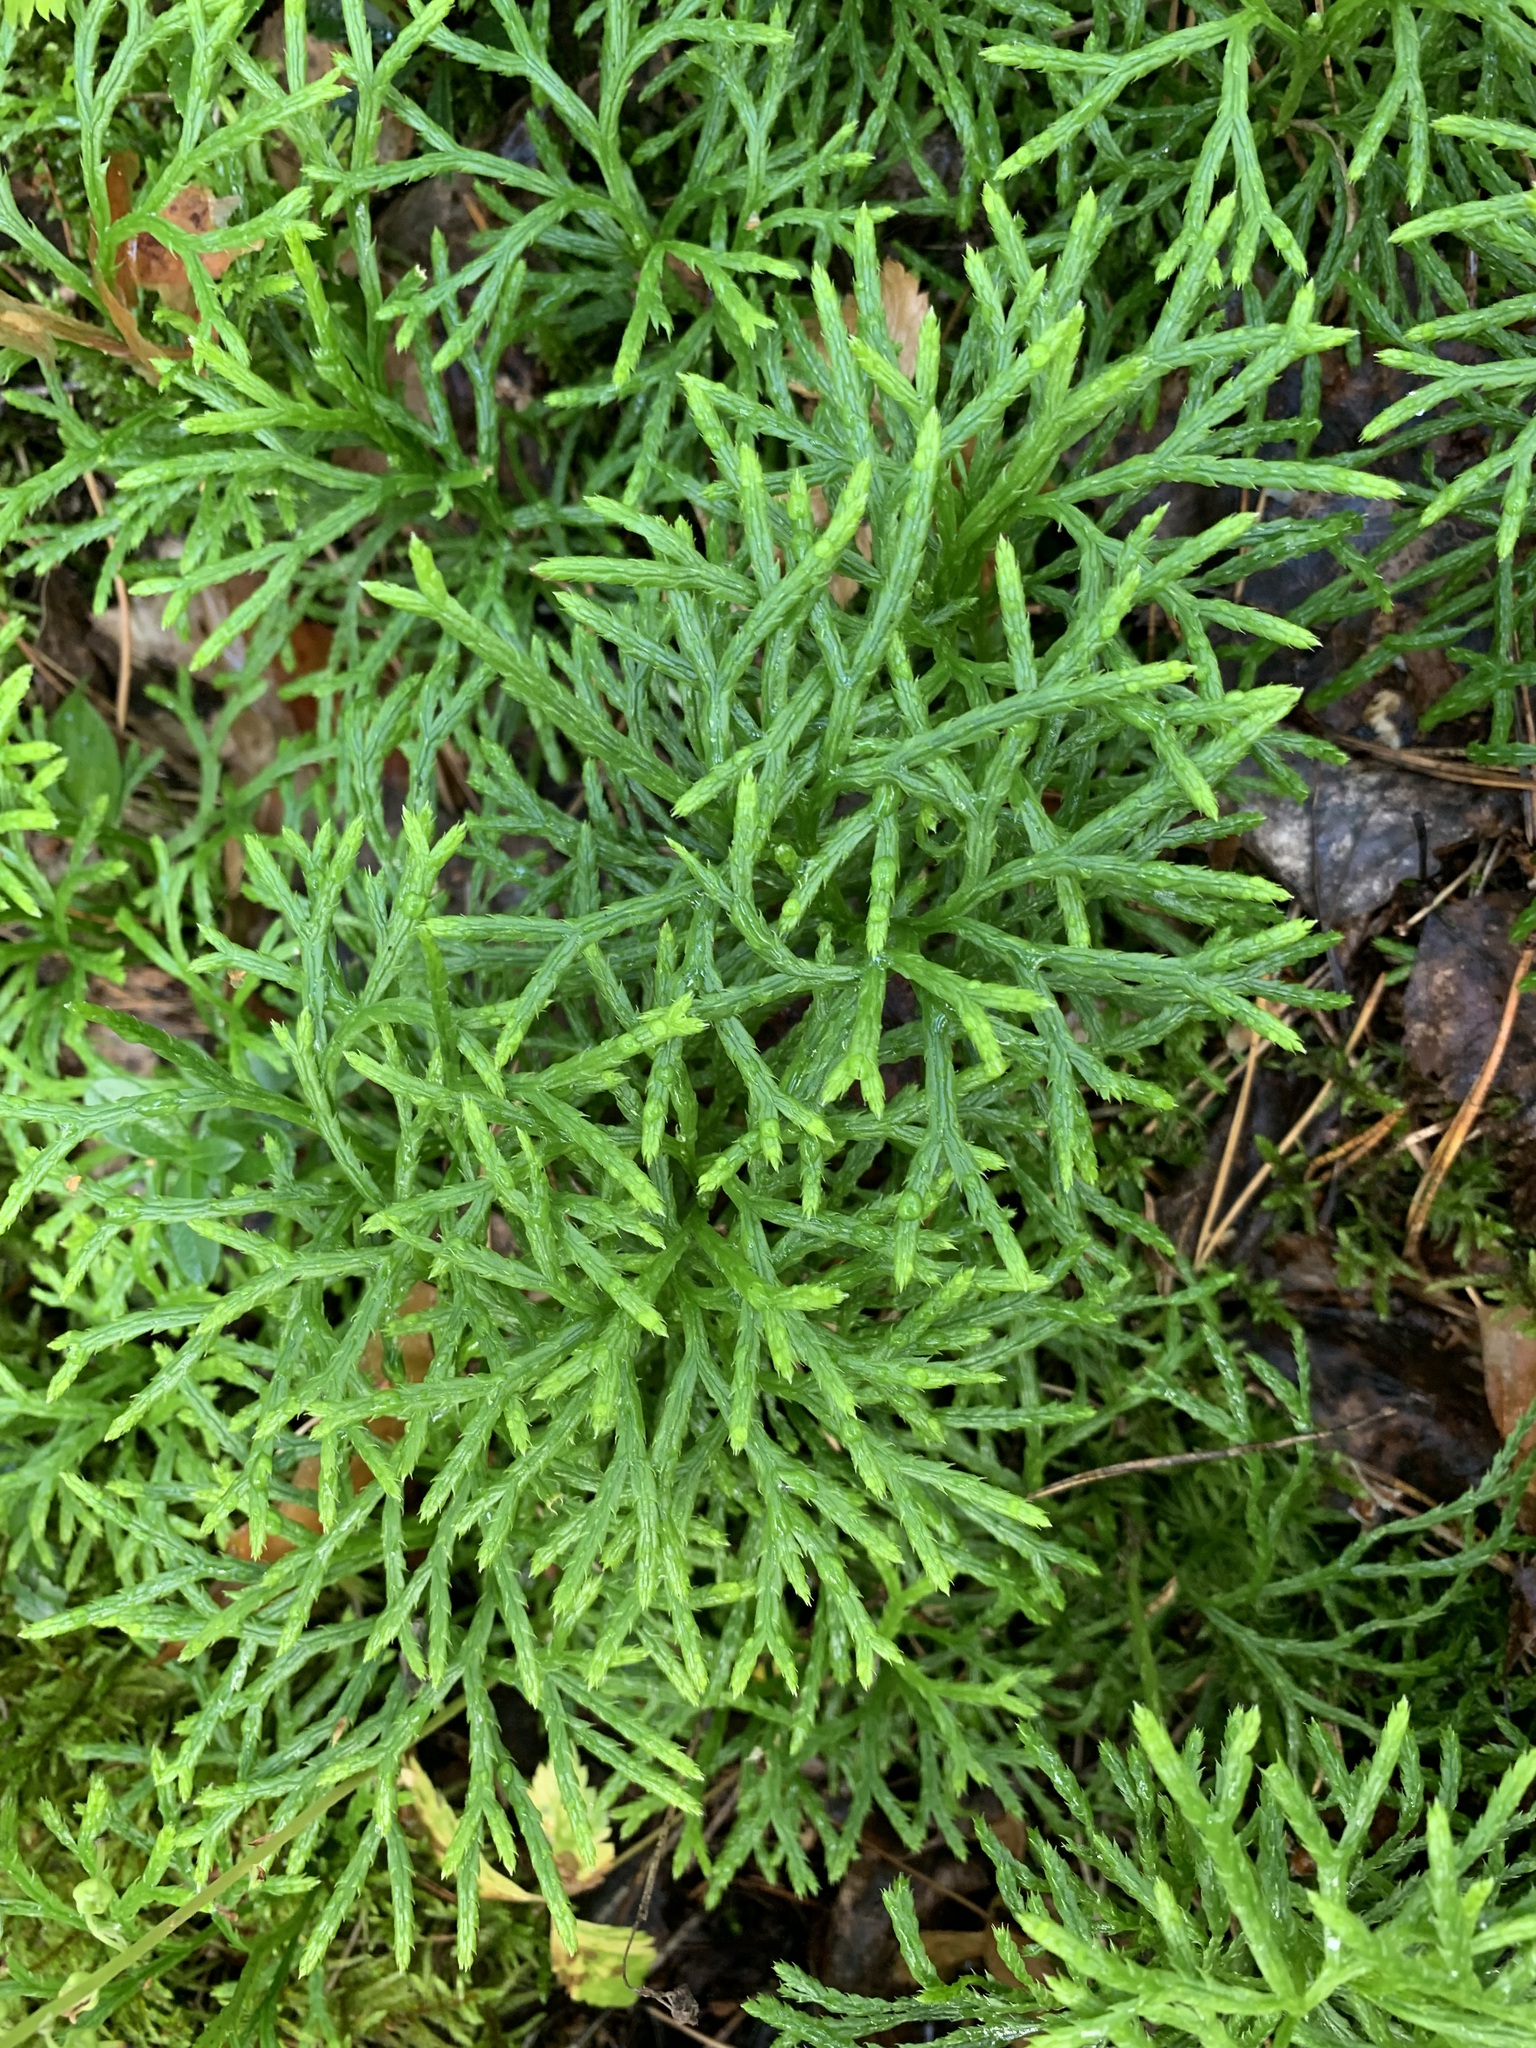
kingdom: Plantae
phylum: Tracheophyta
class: Lycopodiopsida
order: Lycopodiales
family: Lycopodiaceae
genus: Diphasiastrum
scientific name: Diphasiastrum complanatum
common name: Northern running-pine
